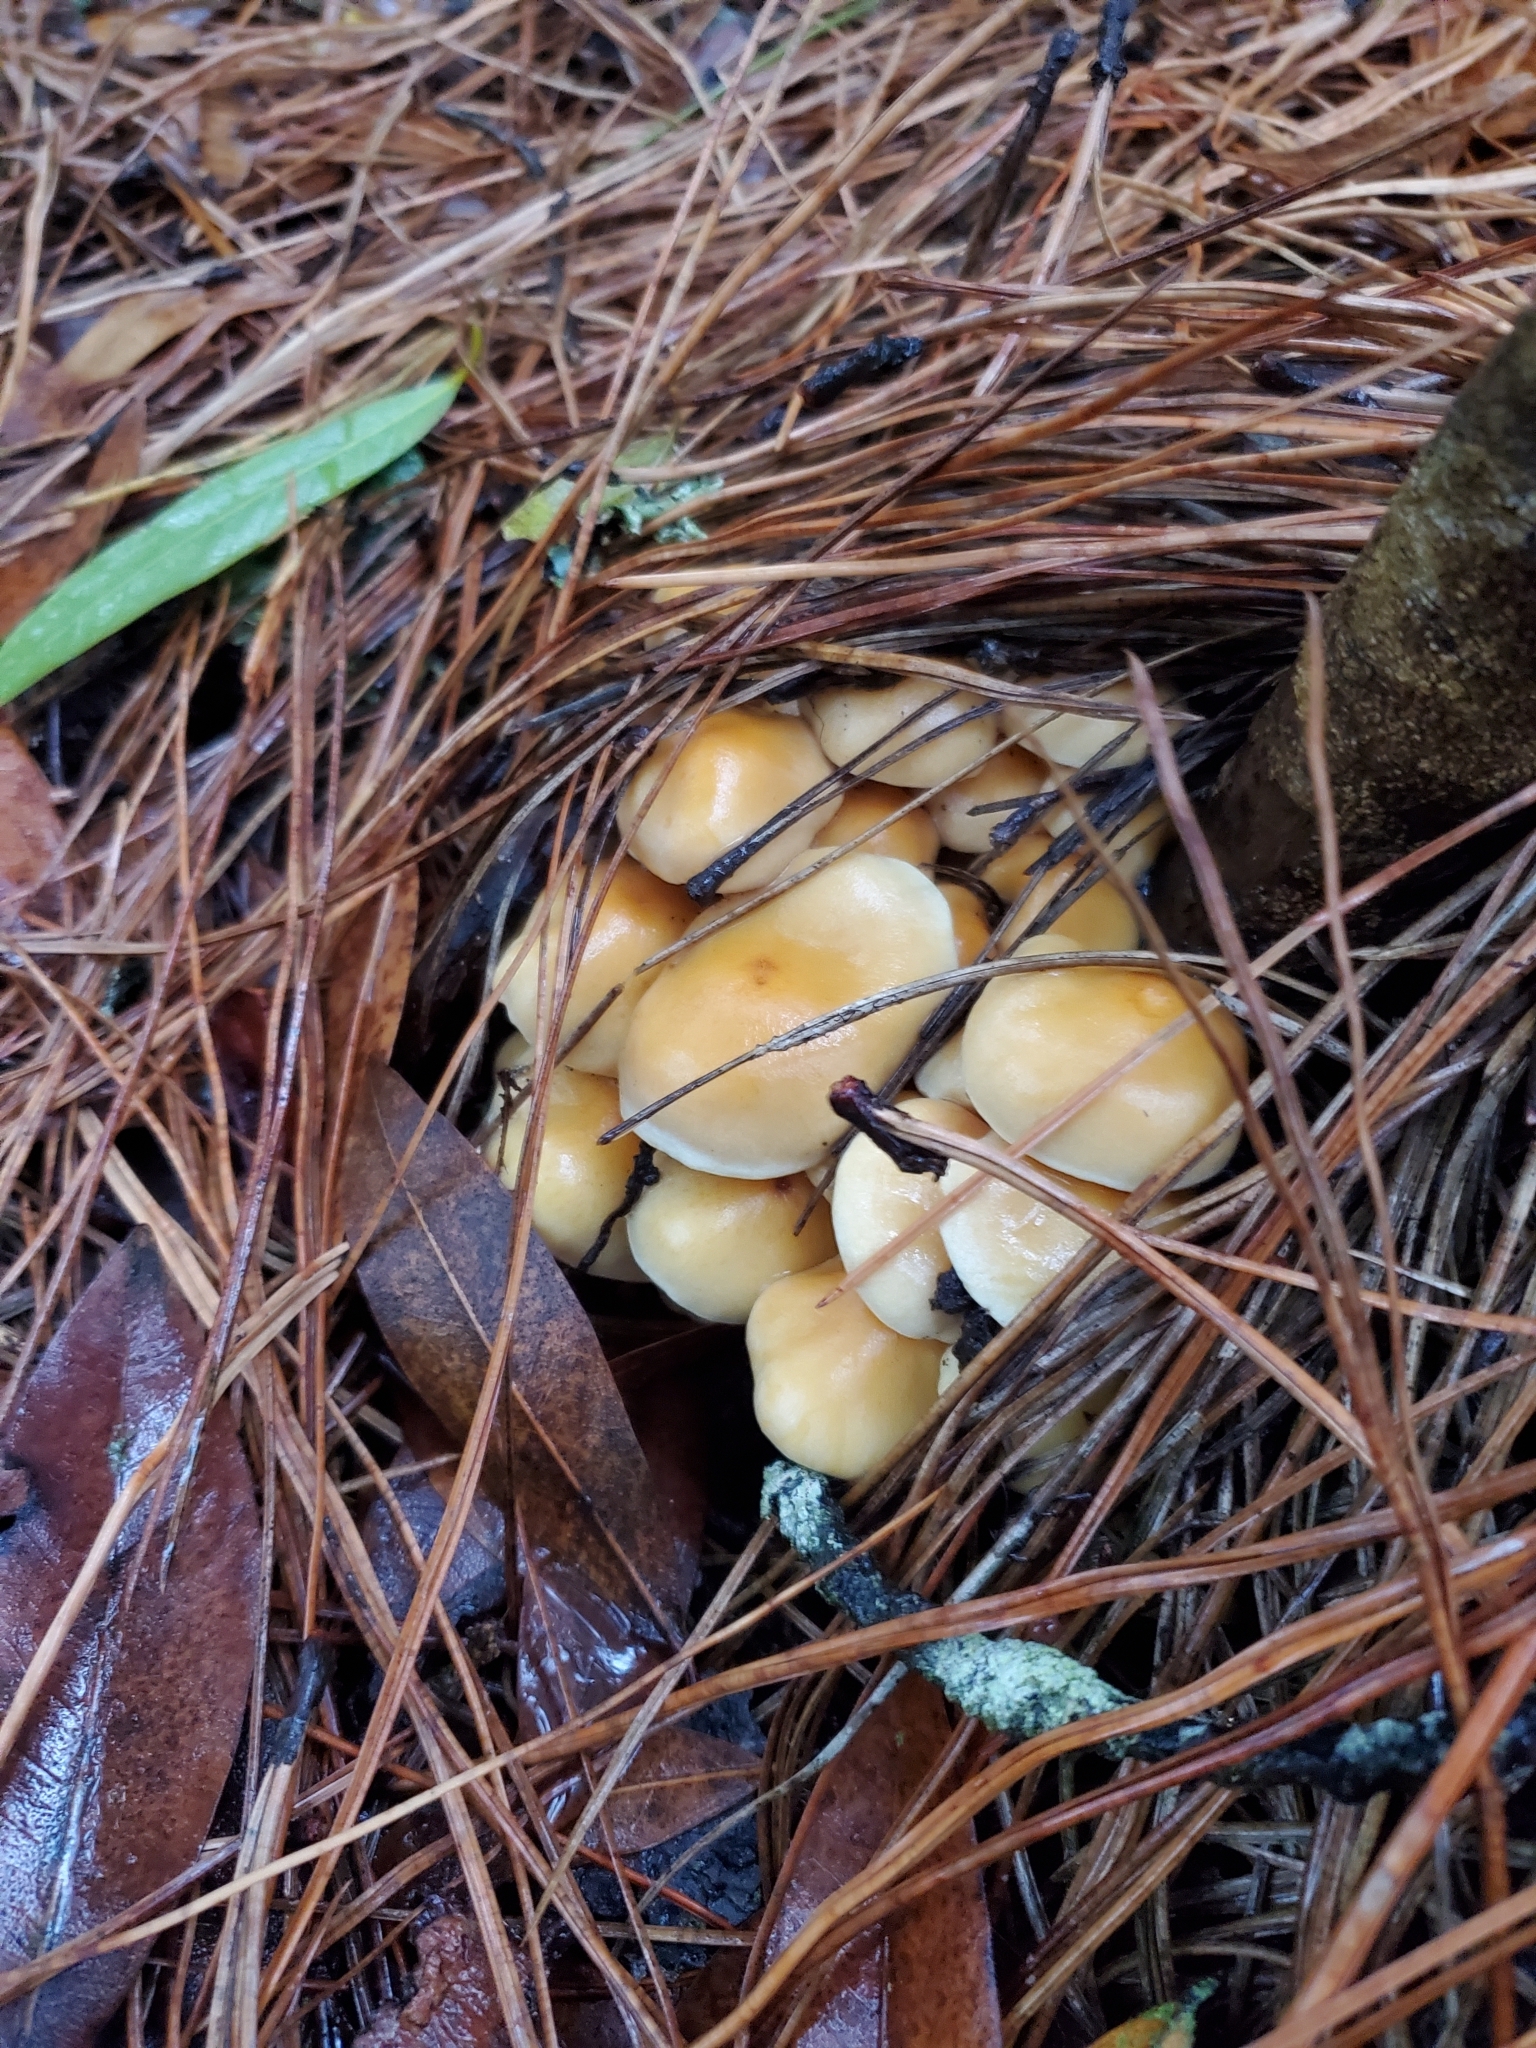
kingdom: Fungi
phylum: Basidiomycota
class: Agaricomycetes
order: Agaricales
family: Strophariaceae
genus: Hypholoma
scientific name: Hypholoma fasciculare
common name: Sulphur tuft
